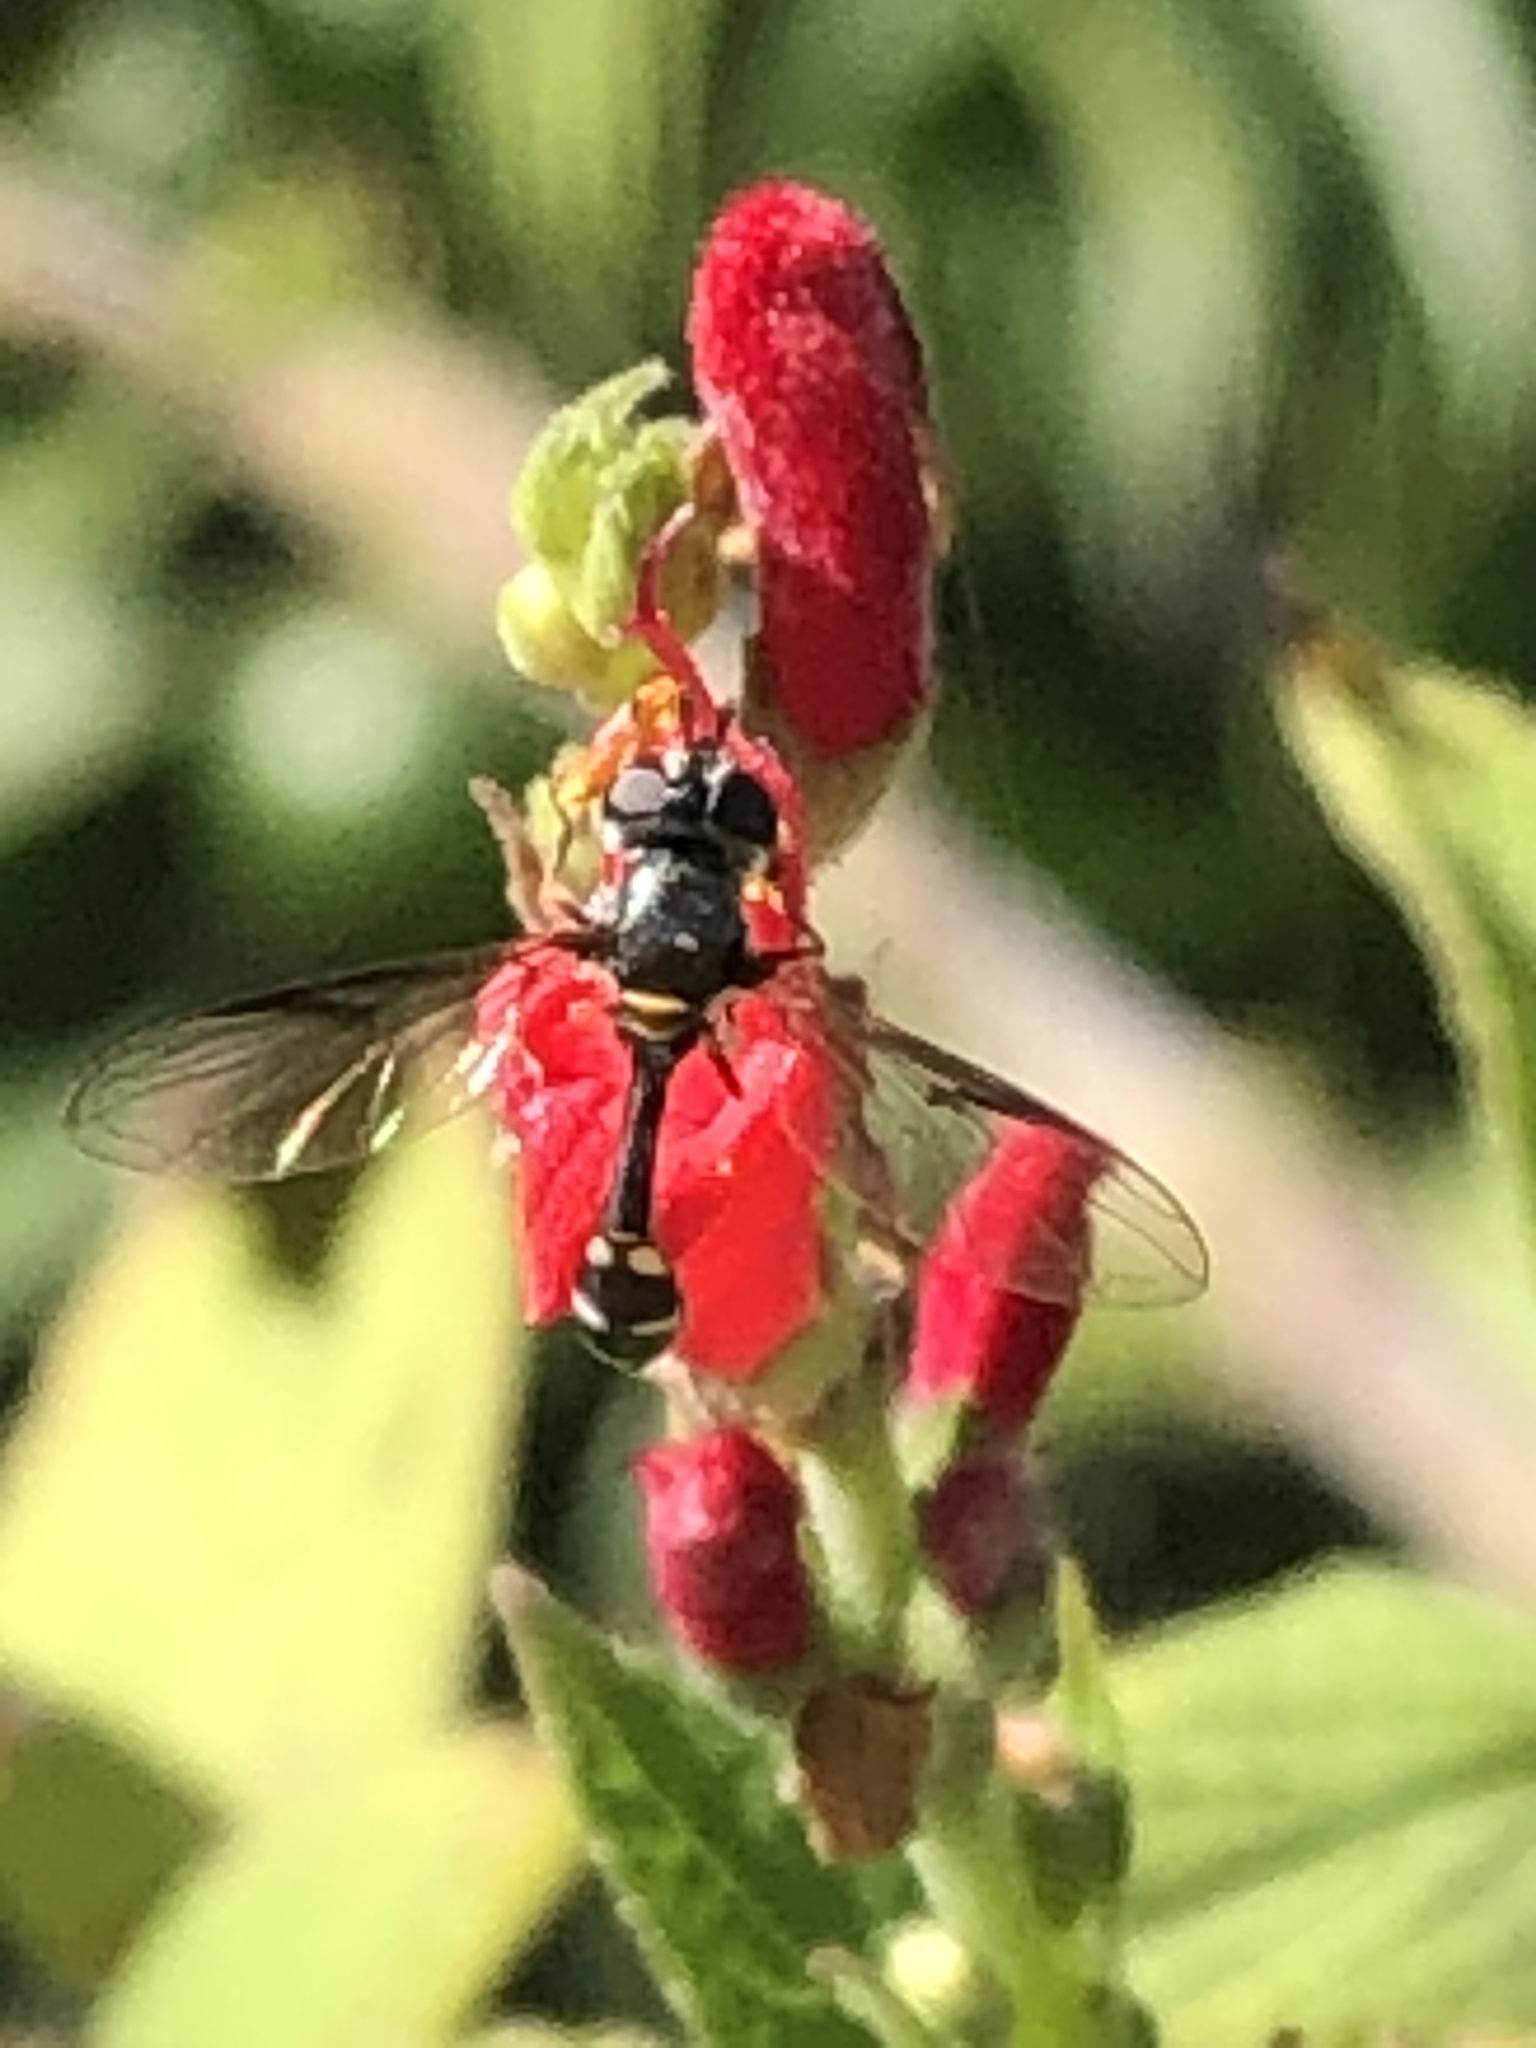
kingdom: Animalia
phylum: Arthropoda
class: Insecta
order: Diptera
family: Syrphidae
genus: Dioprosopa
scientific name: Dioprosopa clavatus
